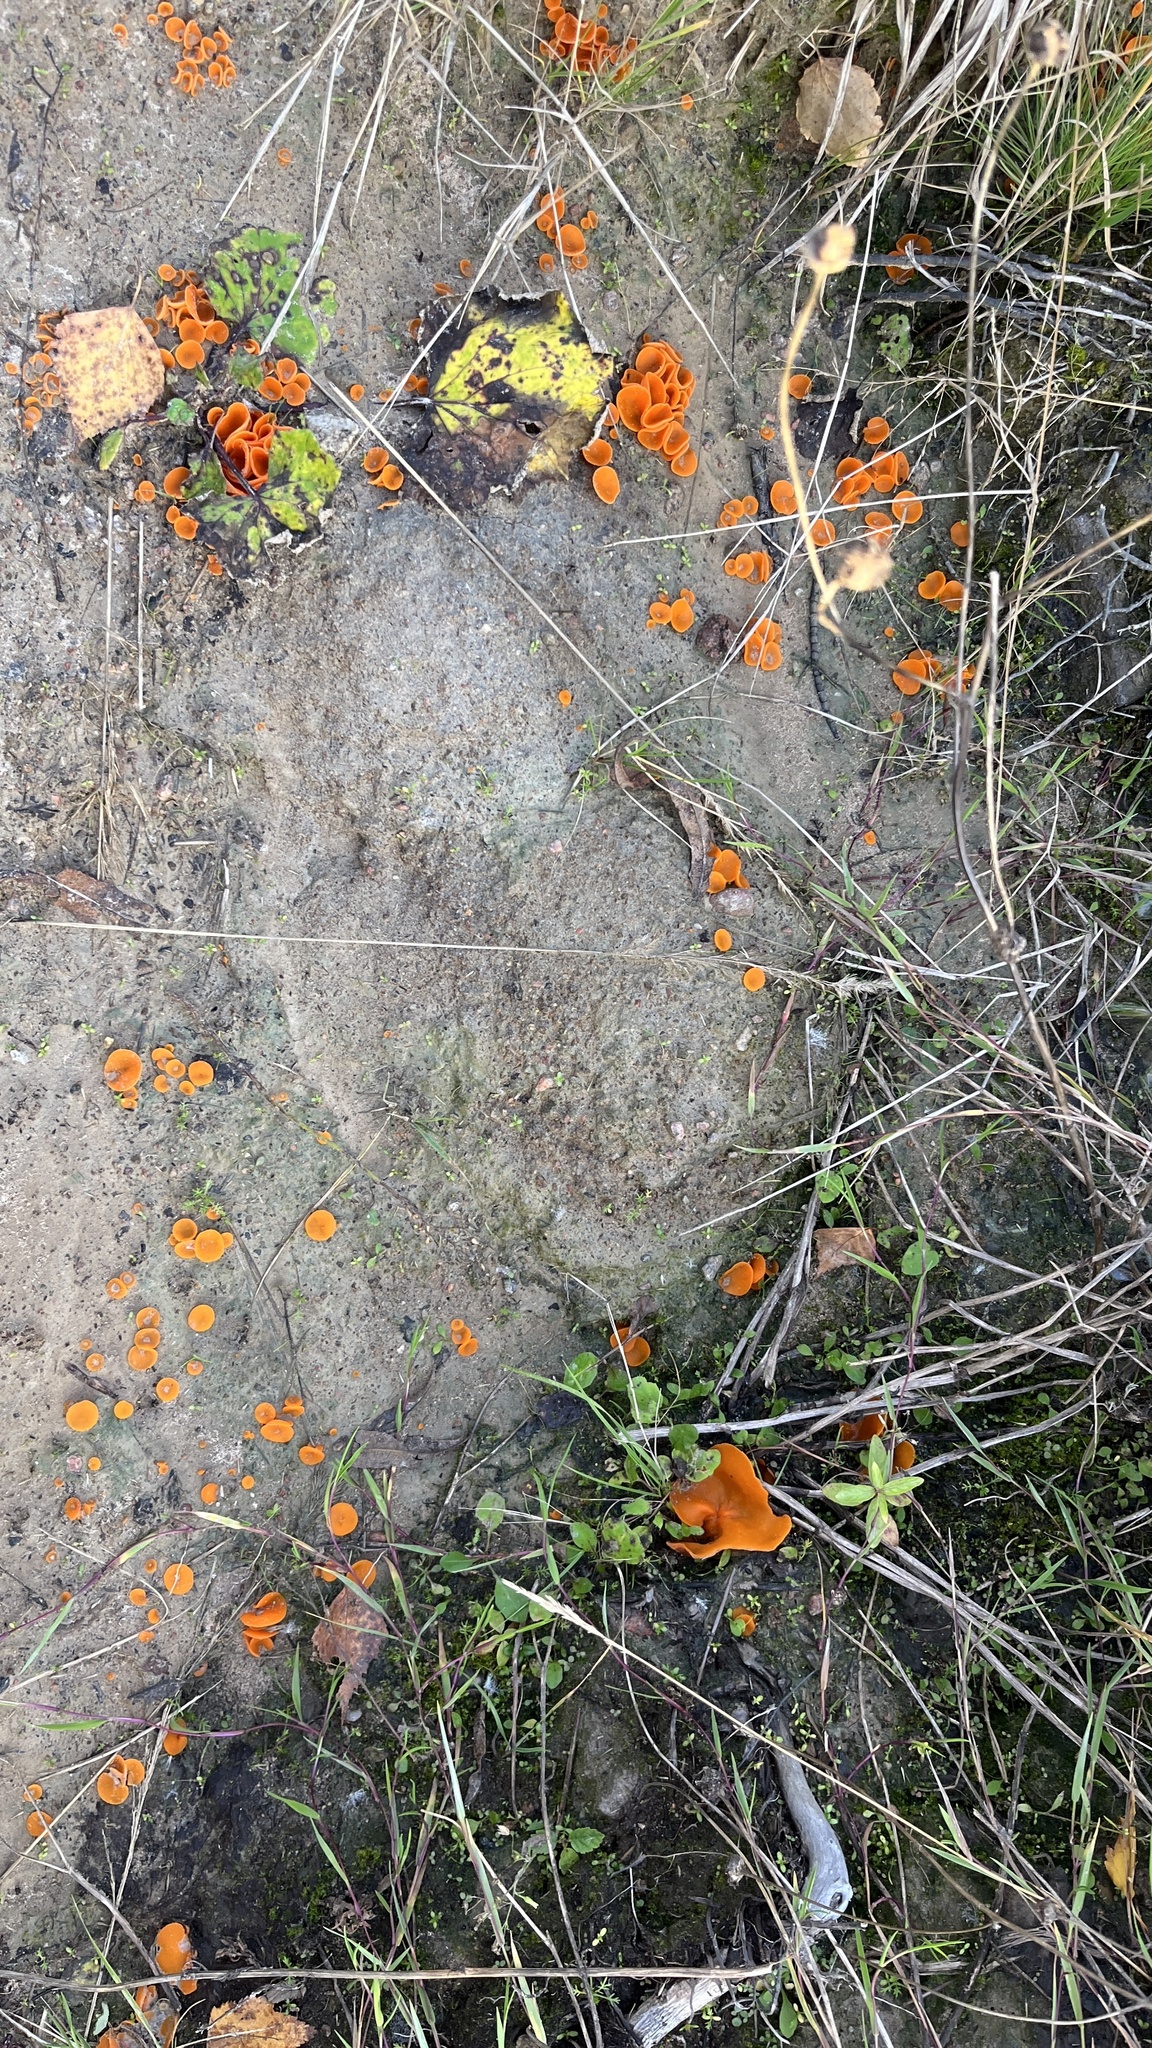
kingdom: Fungi
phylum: Ascomycota
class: Pezizomycetes
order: Pezizales
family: Pyronemataceae
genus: Aleuria
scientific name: Aleuria aurantia
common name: Orange peel fungus
